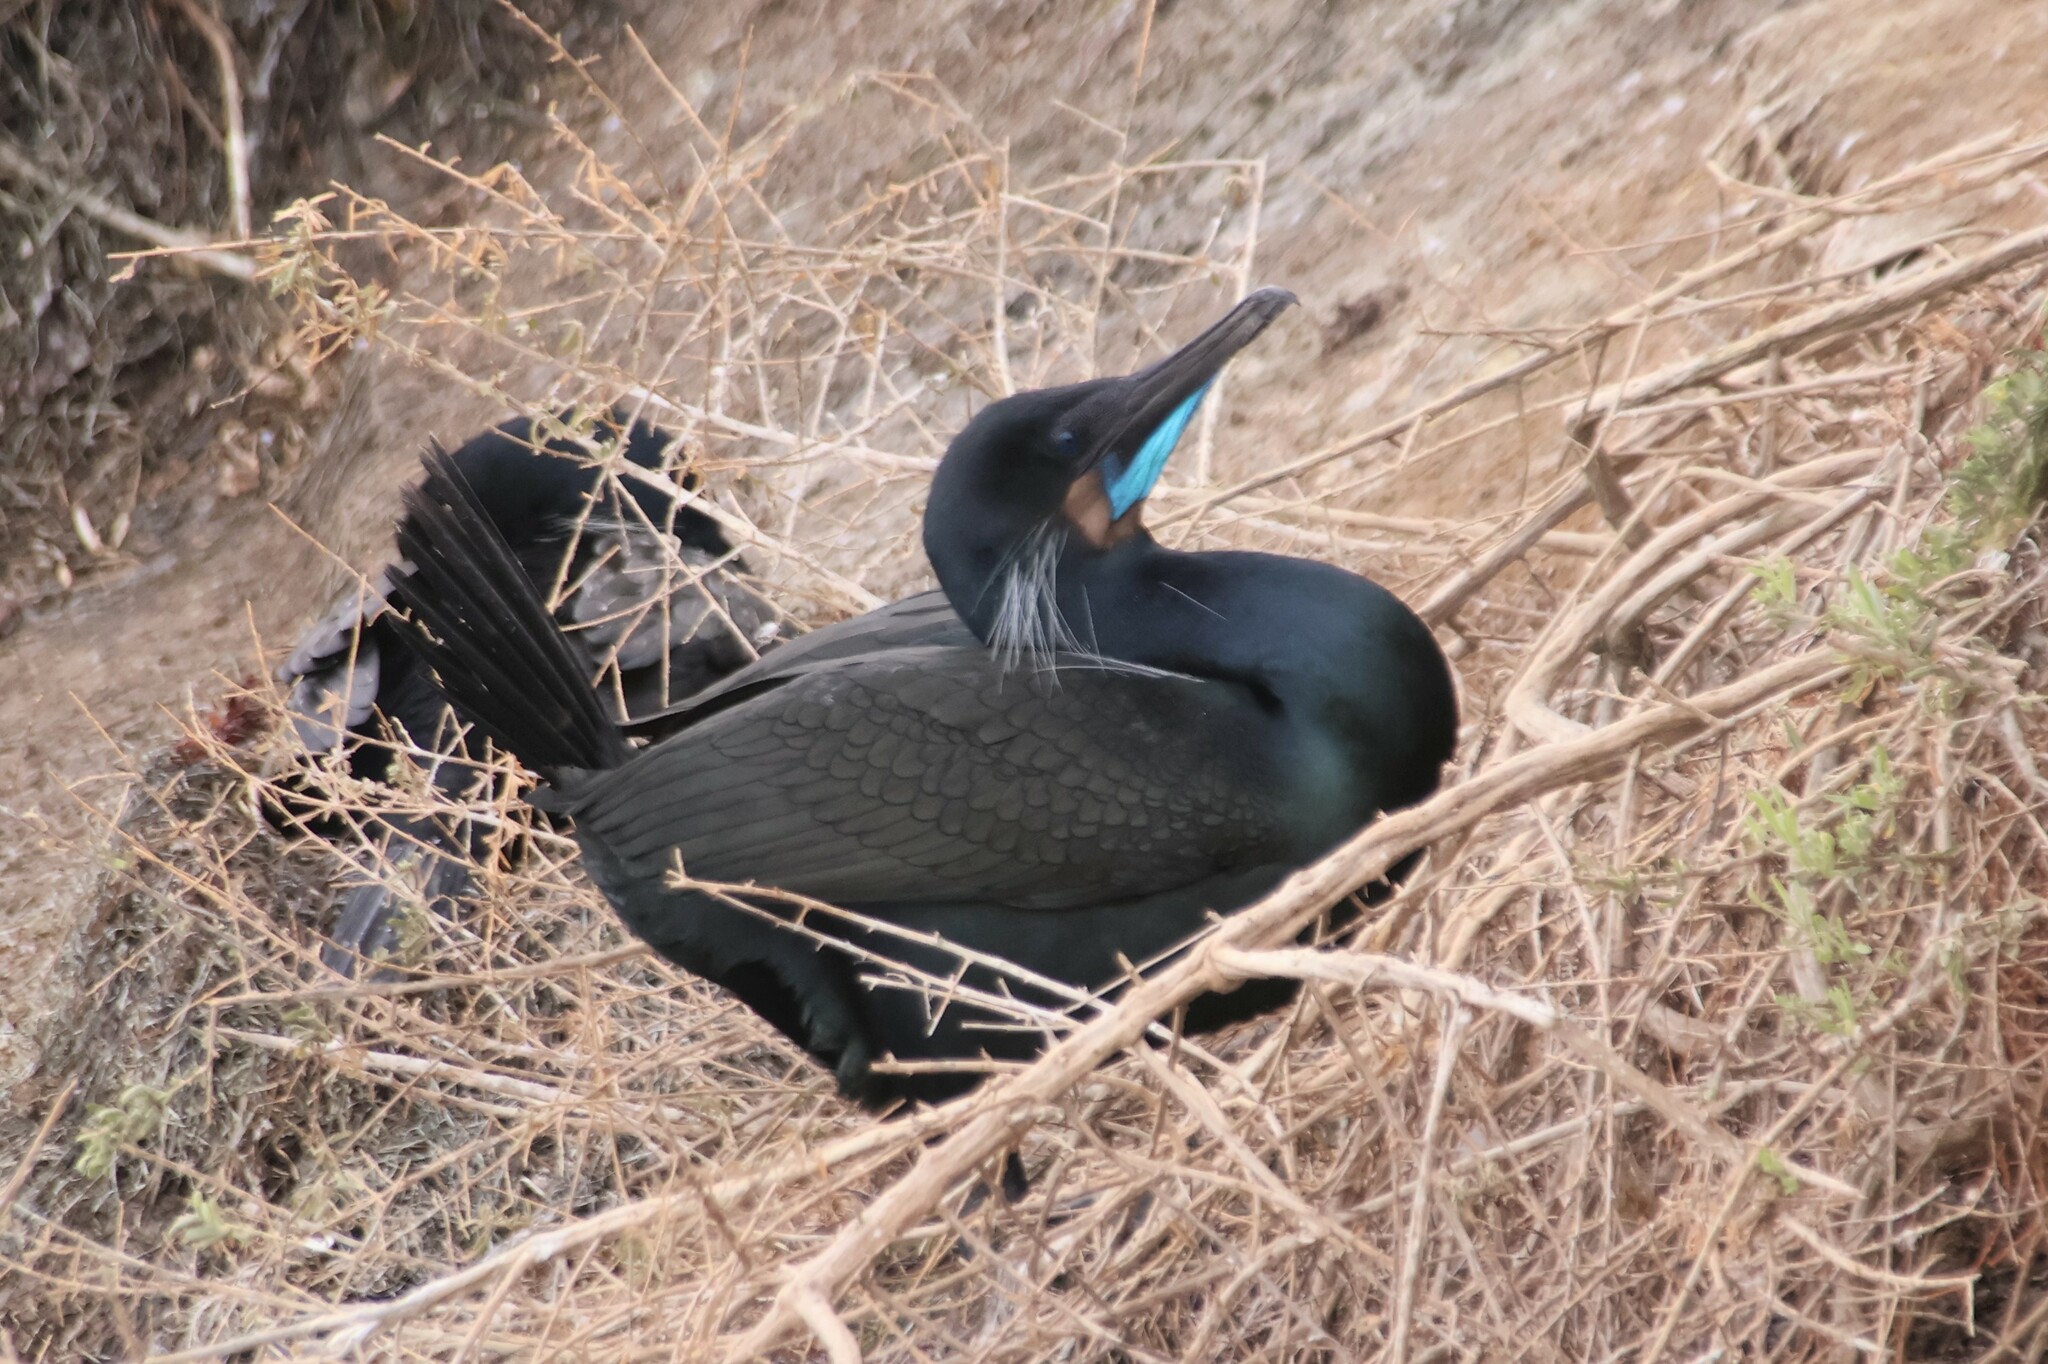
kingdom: Animalia
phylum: Chordata
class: Aves
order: Suliformes
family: Phalacrocoracidae
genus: Urile
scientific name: Urile penicillatus
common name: Brandt's cormorant
